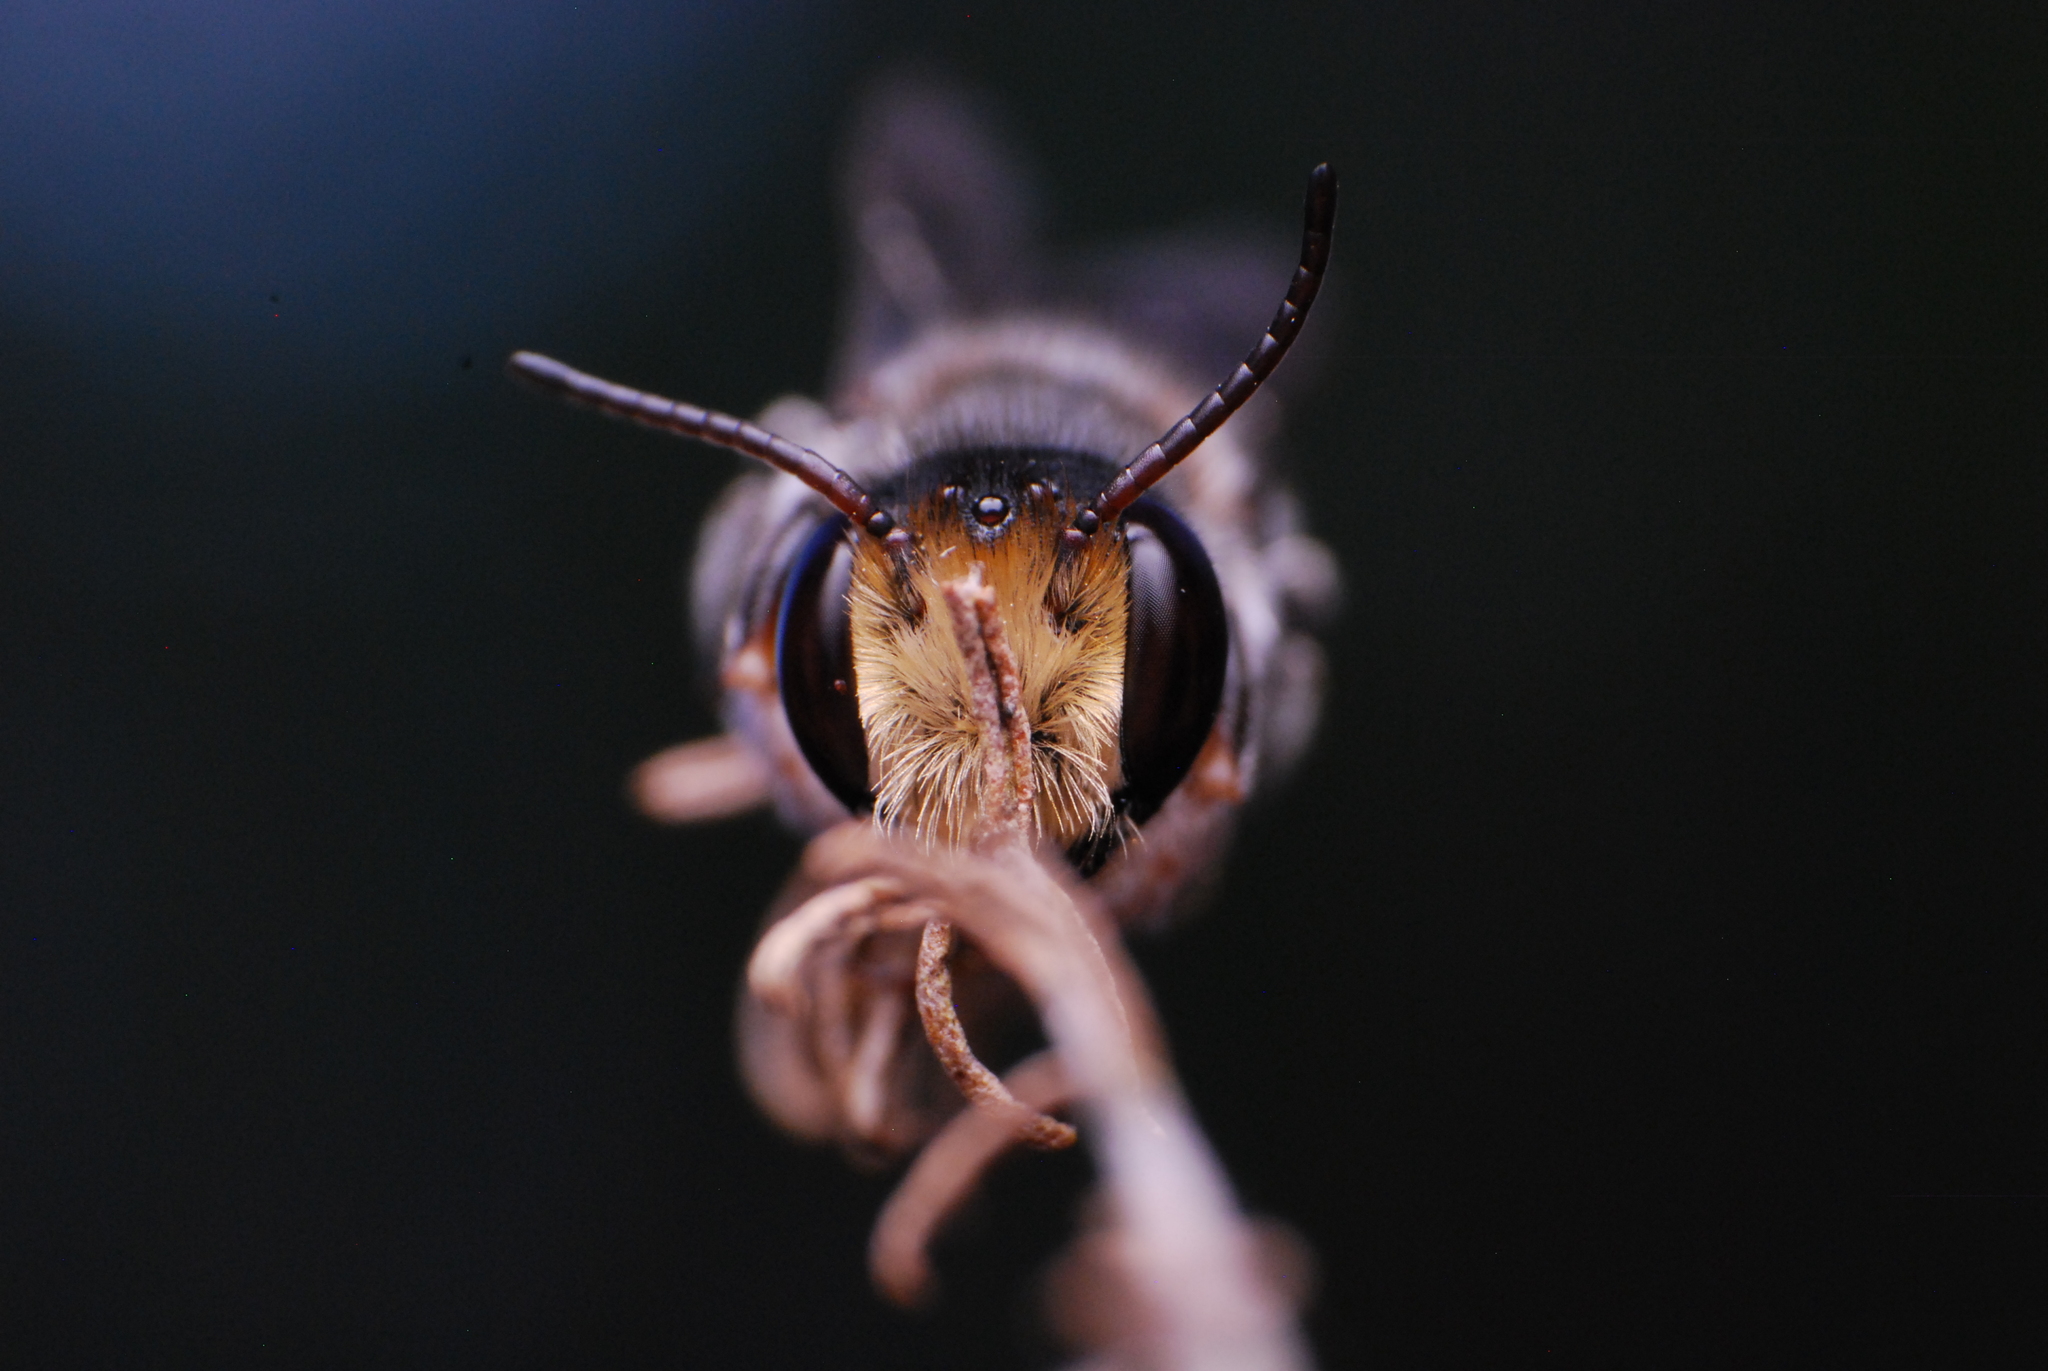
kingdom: Animalia
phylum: Arthropoda
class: Insecta
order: Hymenoptera
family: Megachilidae
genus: Megachile
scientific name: Megachile lucidiventris
